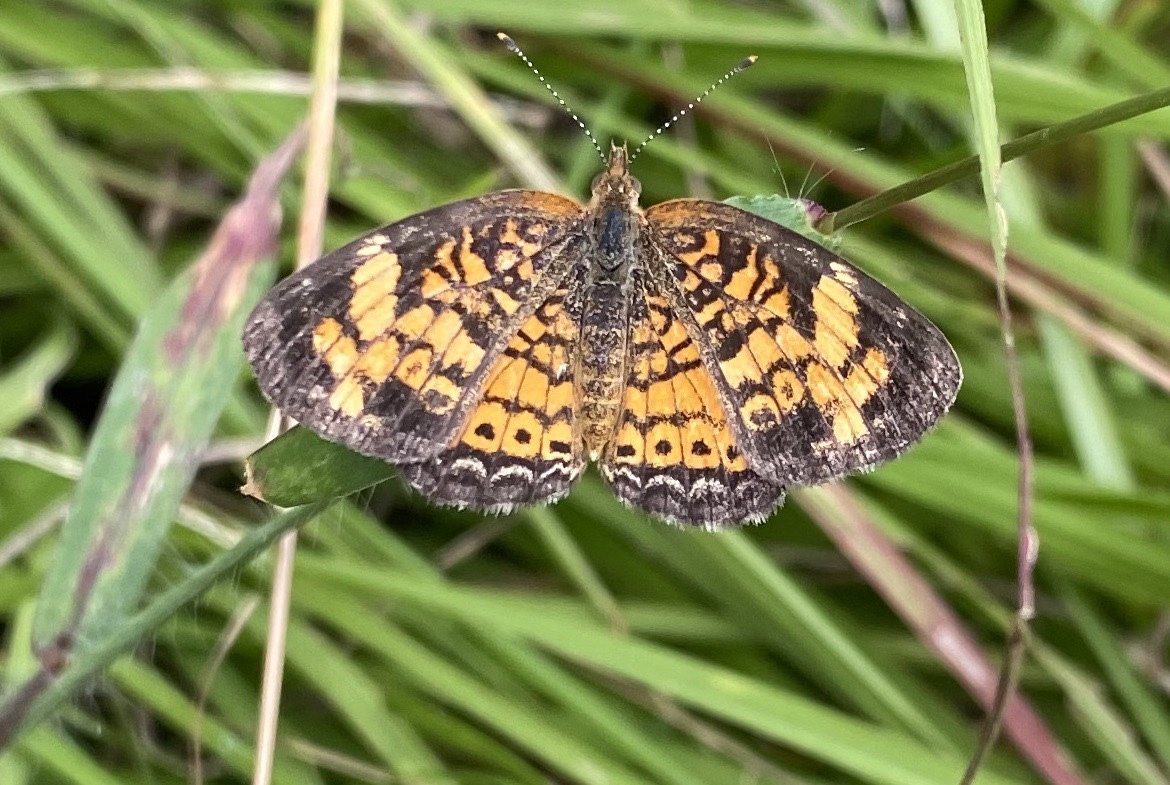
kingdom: Animalia
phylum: Arthropoda
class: Insecta
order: Lepidoptera
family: Nymphalidae
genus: Phyciodes
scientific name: Phyciodes tharos
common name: Pearl crescent
